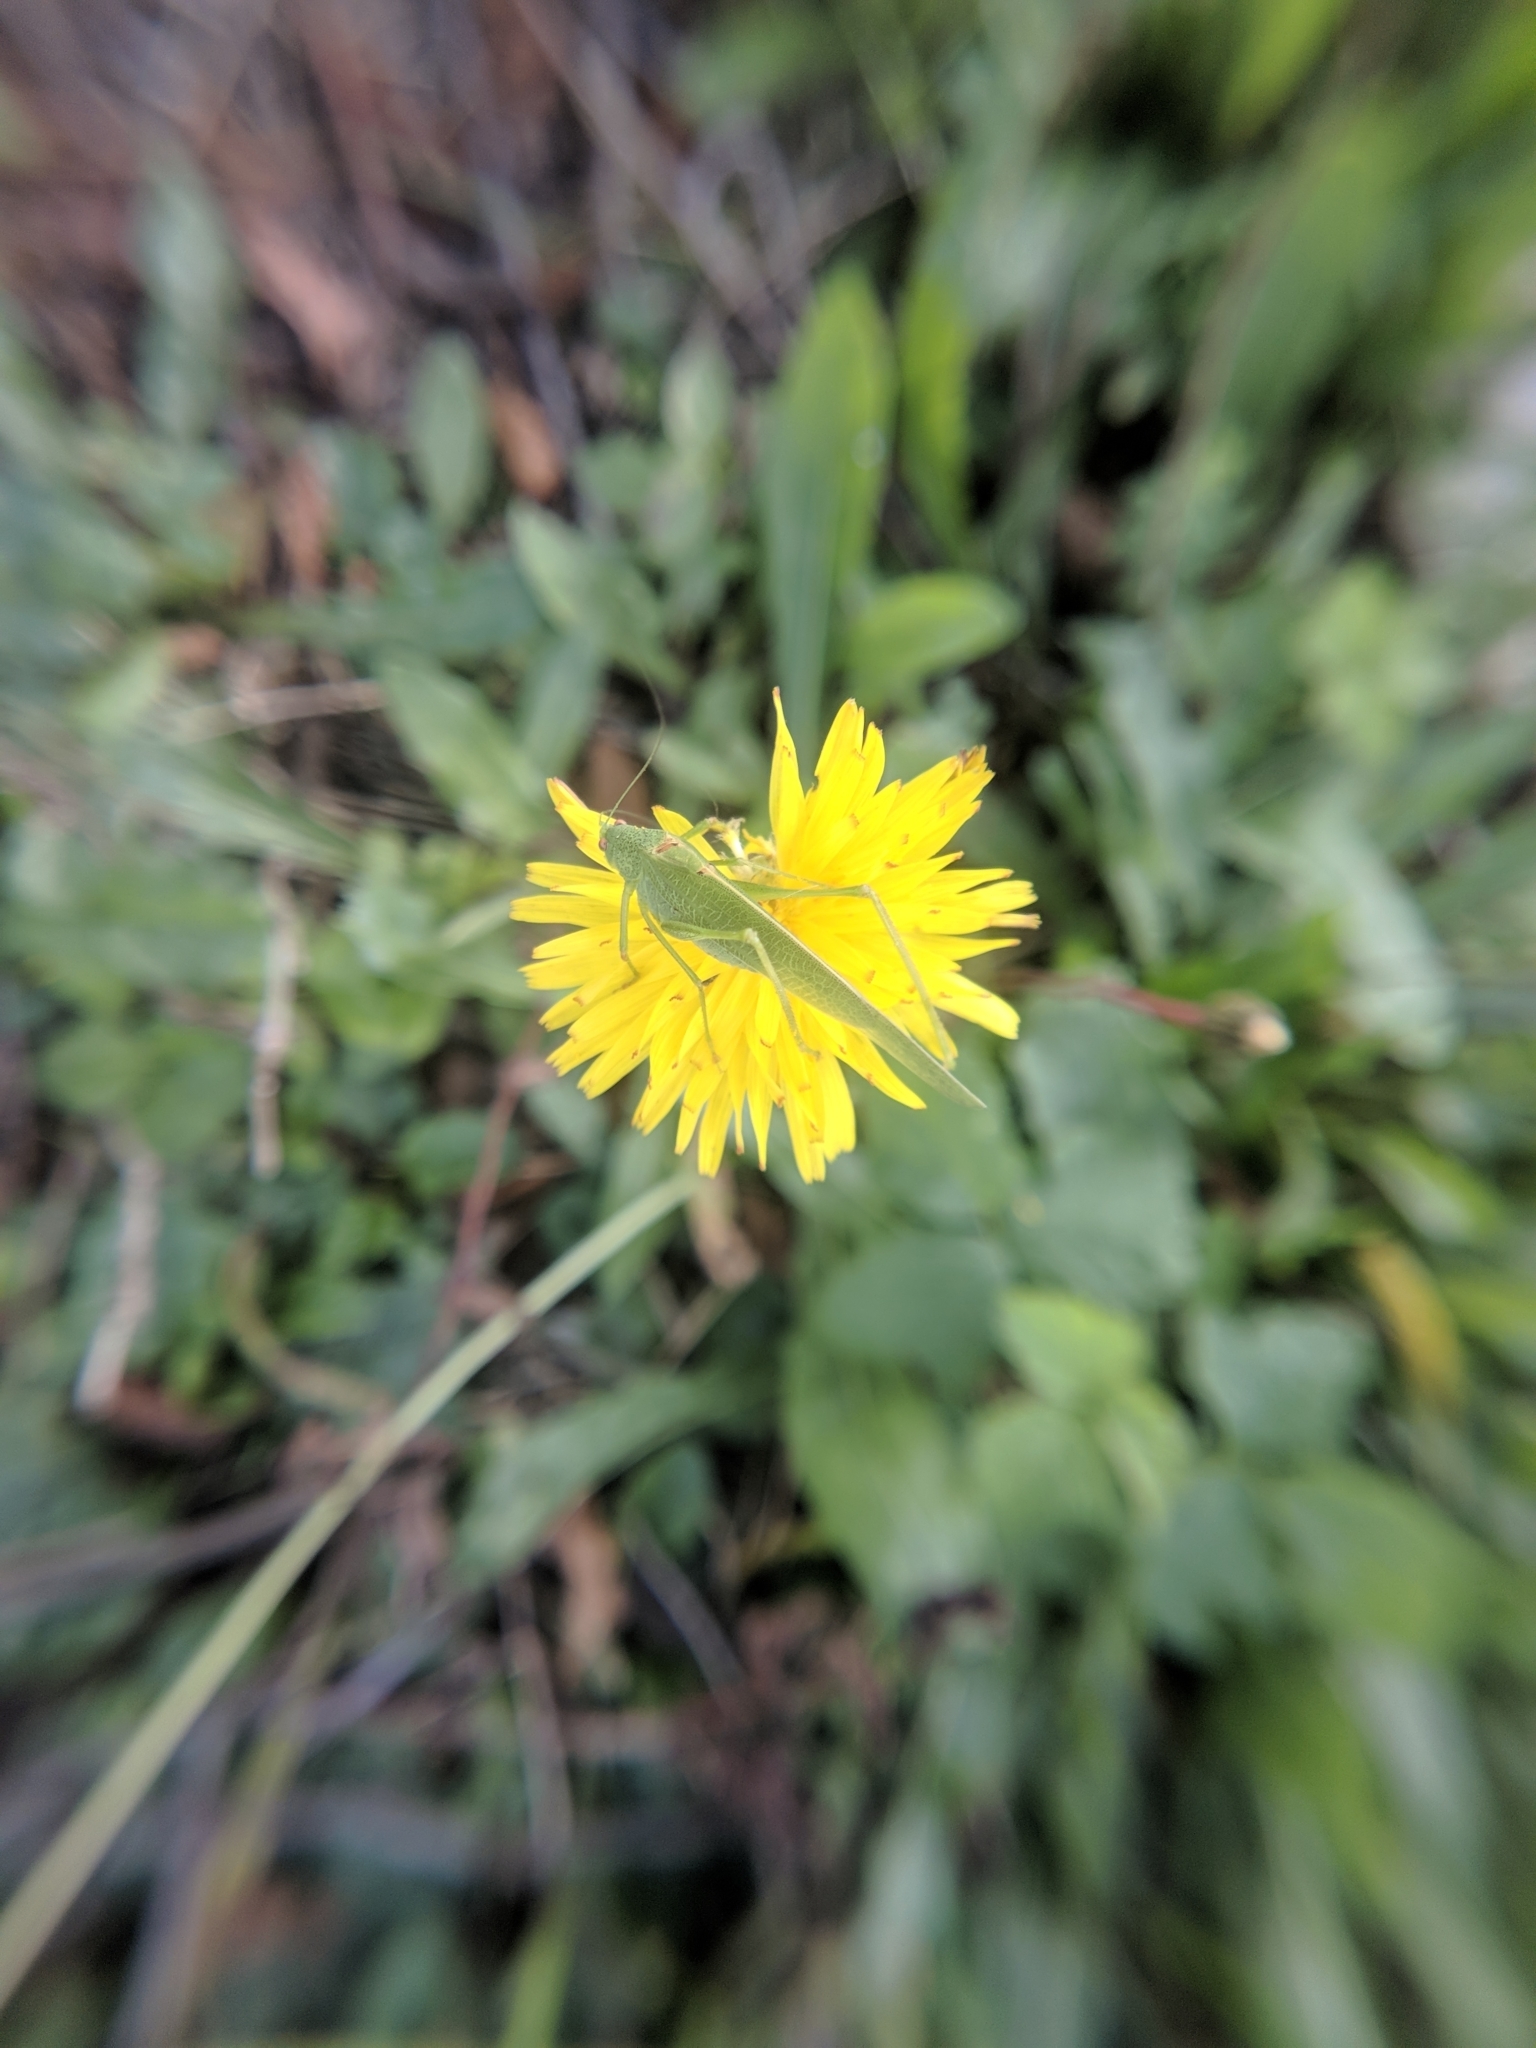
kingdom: Animalia
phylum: Arthropoda
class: Insecta
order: Orthoptera
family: Tettigoniidae
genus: Phaneroptera
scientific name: Phaneroptera nana
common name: Southern sickle bush-cricket
